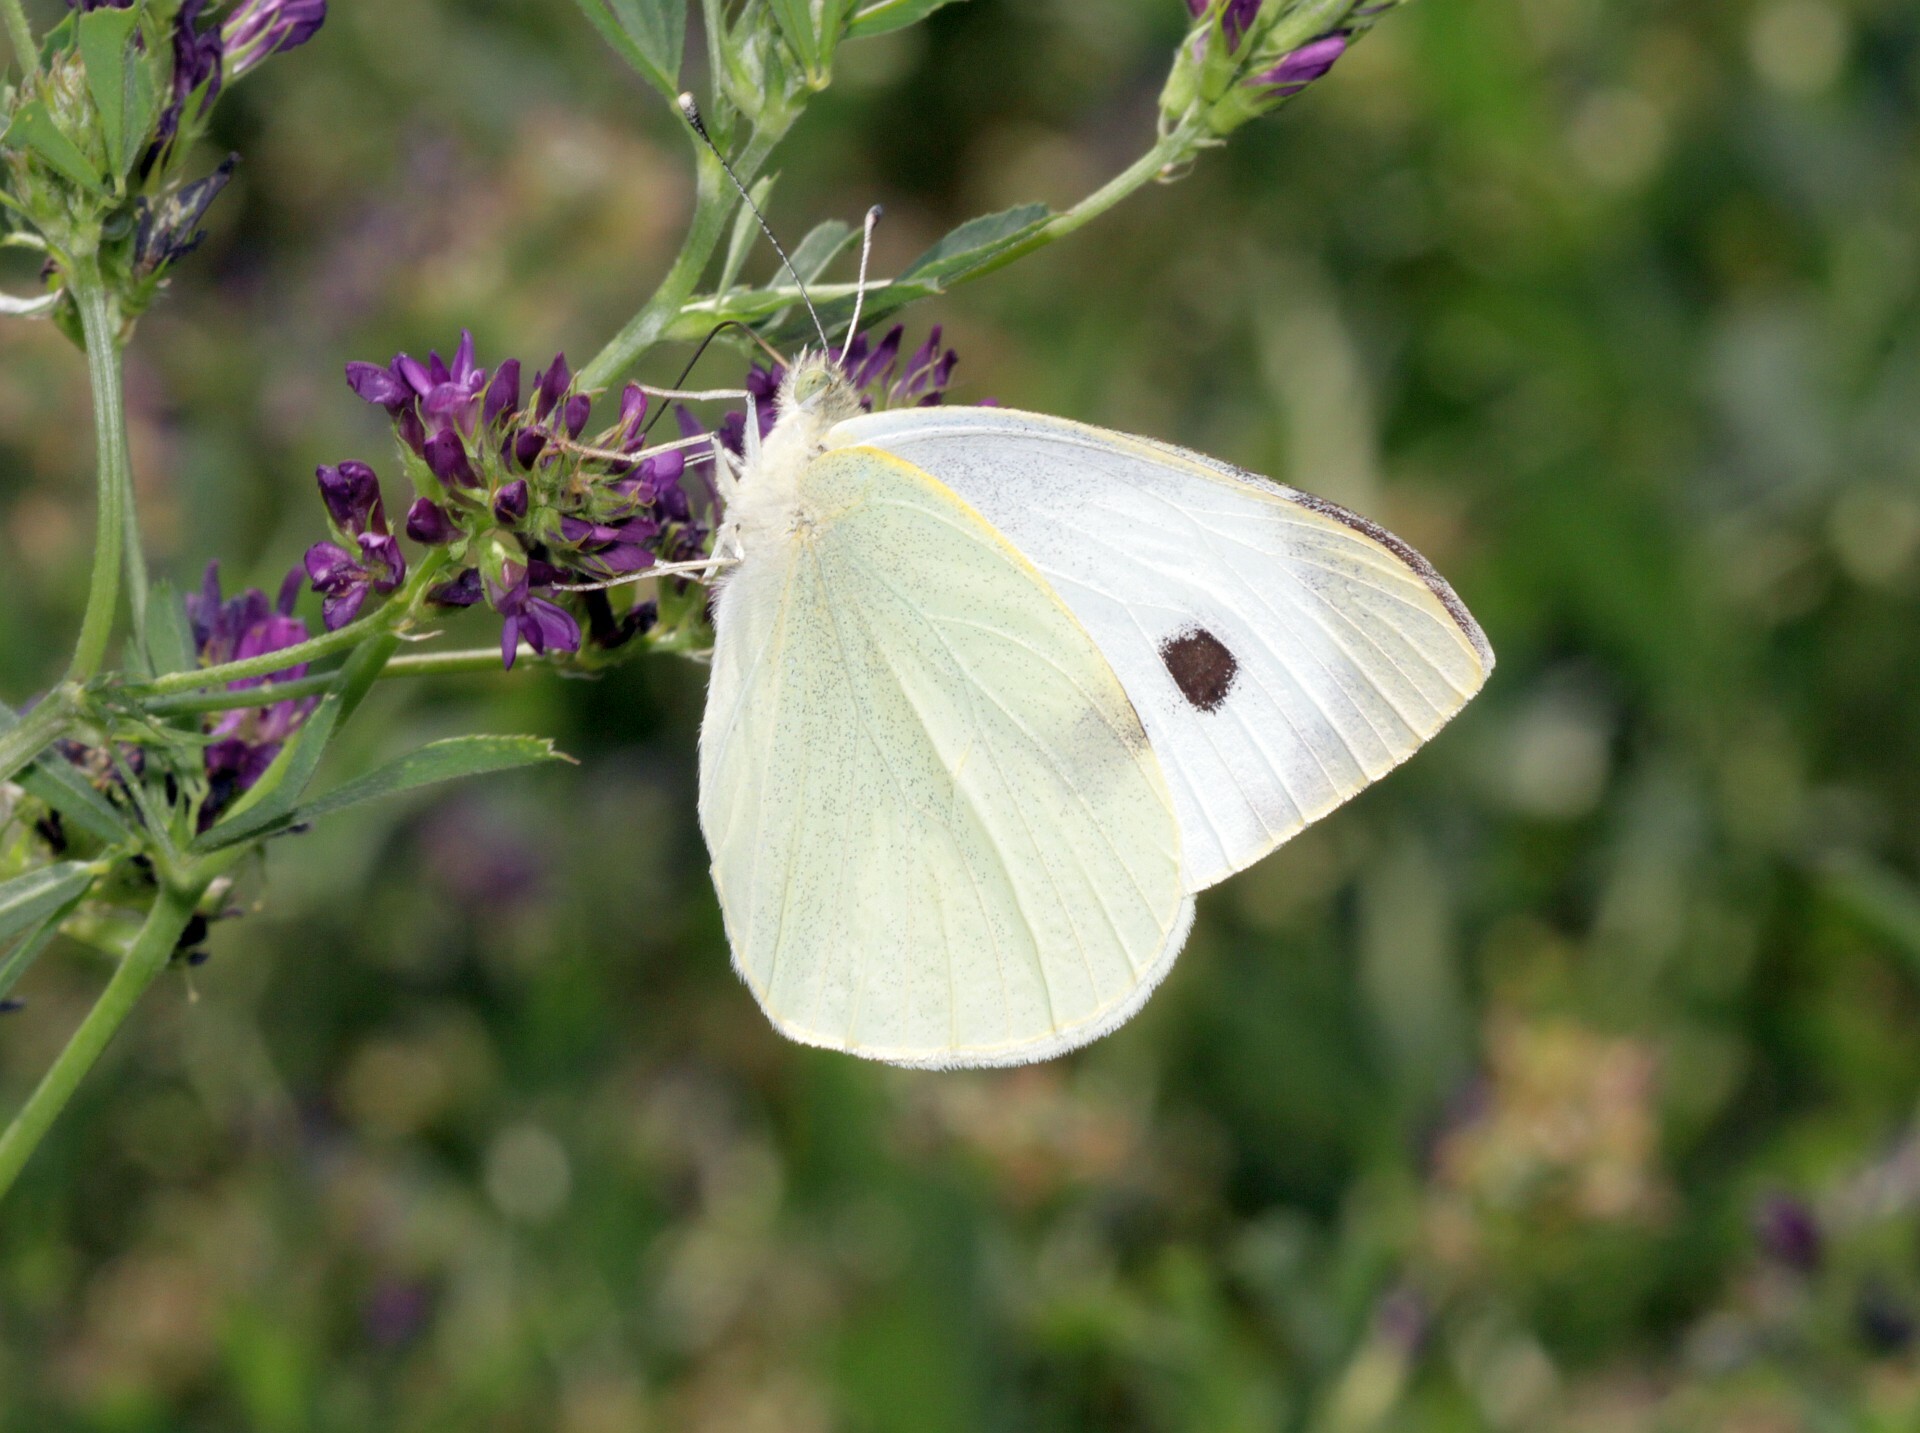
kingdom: Animalia
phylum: Arthropoda
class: Insecta
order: Lepidoptera
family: Pieridae
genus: Pieris
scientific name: Pieris brassicae
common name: Large white
